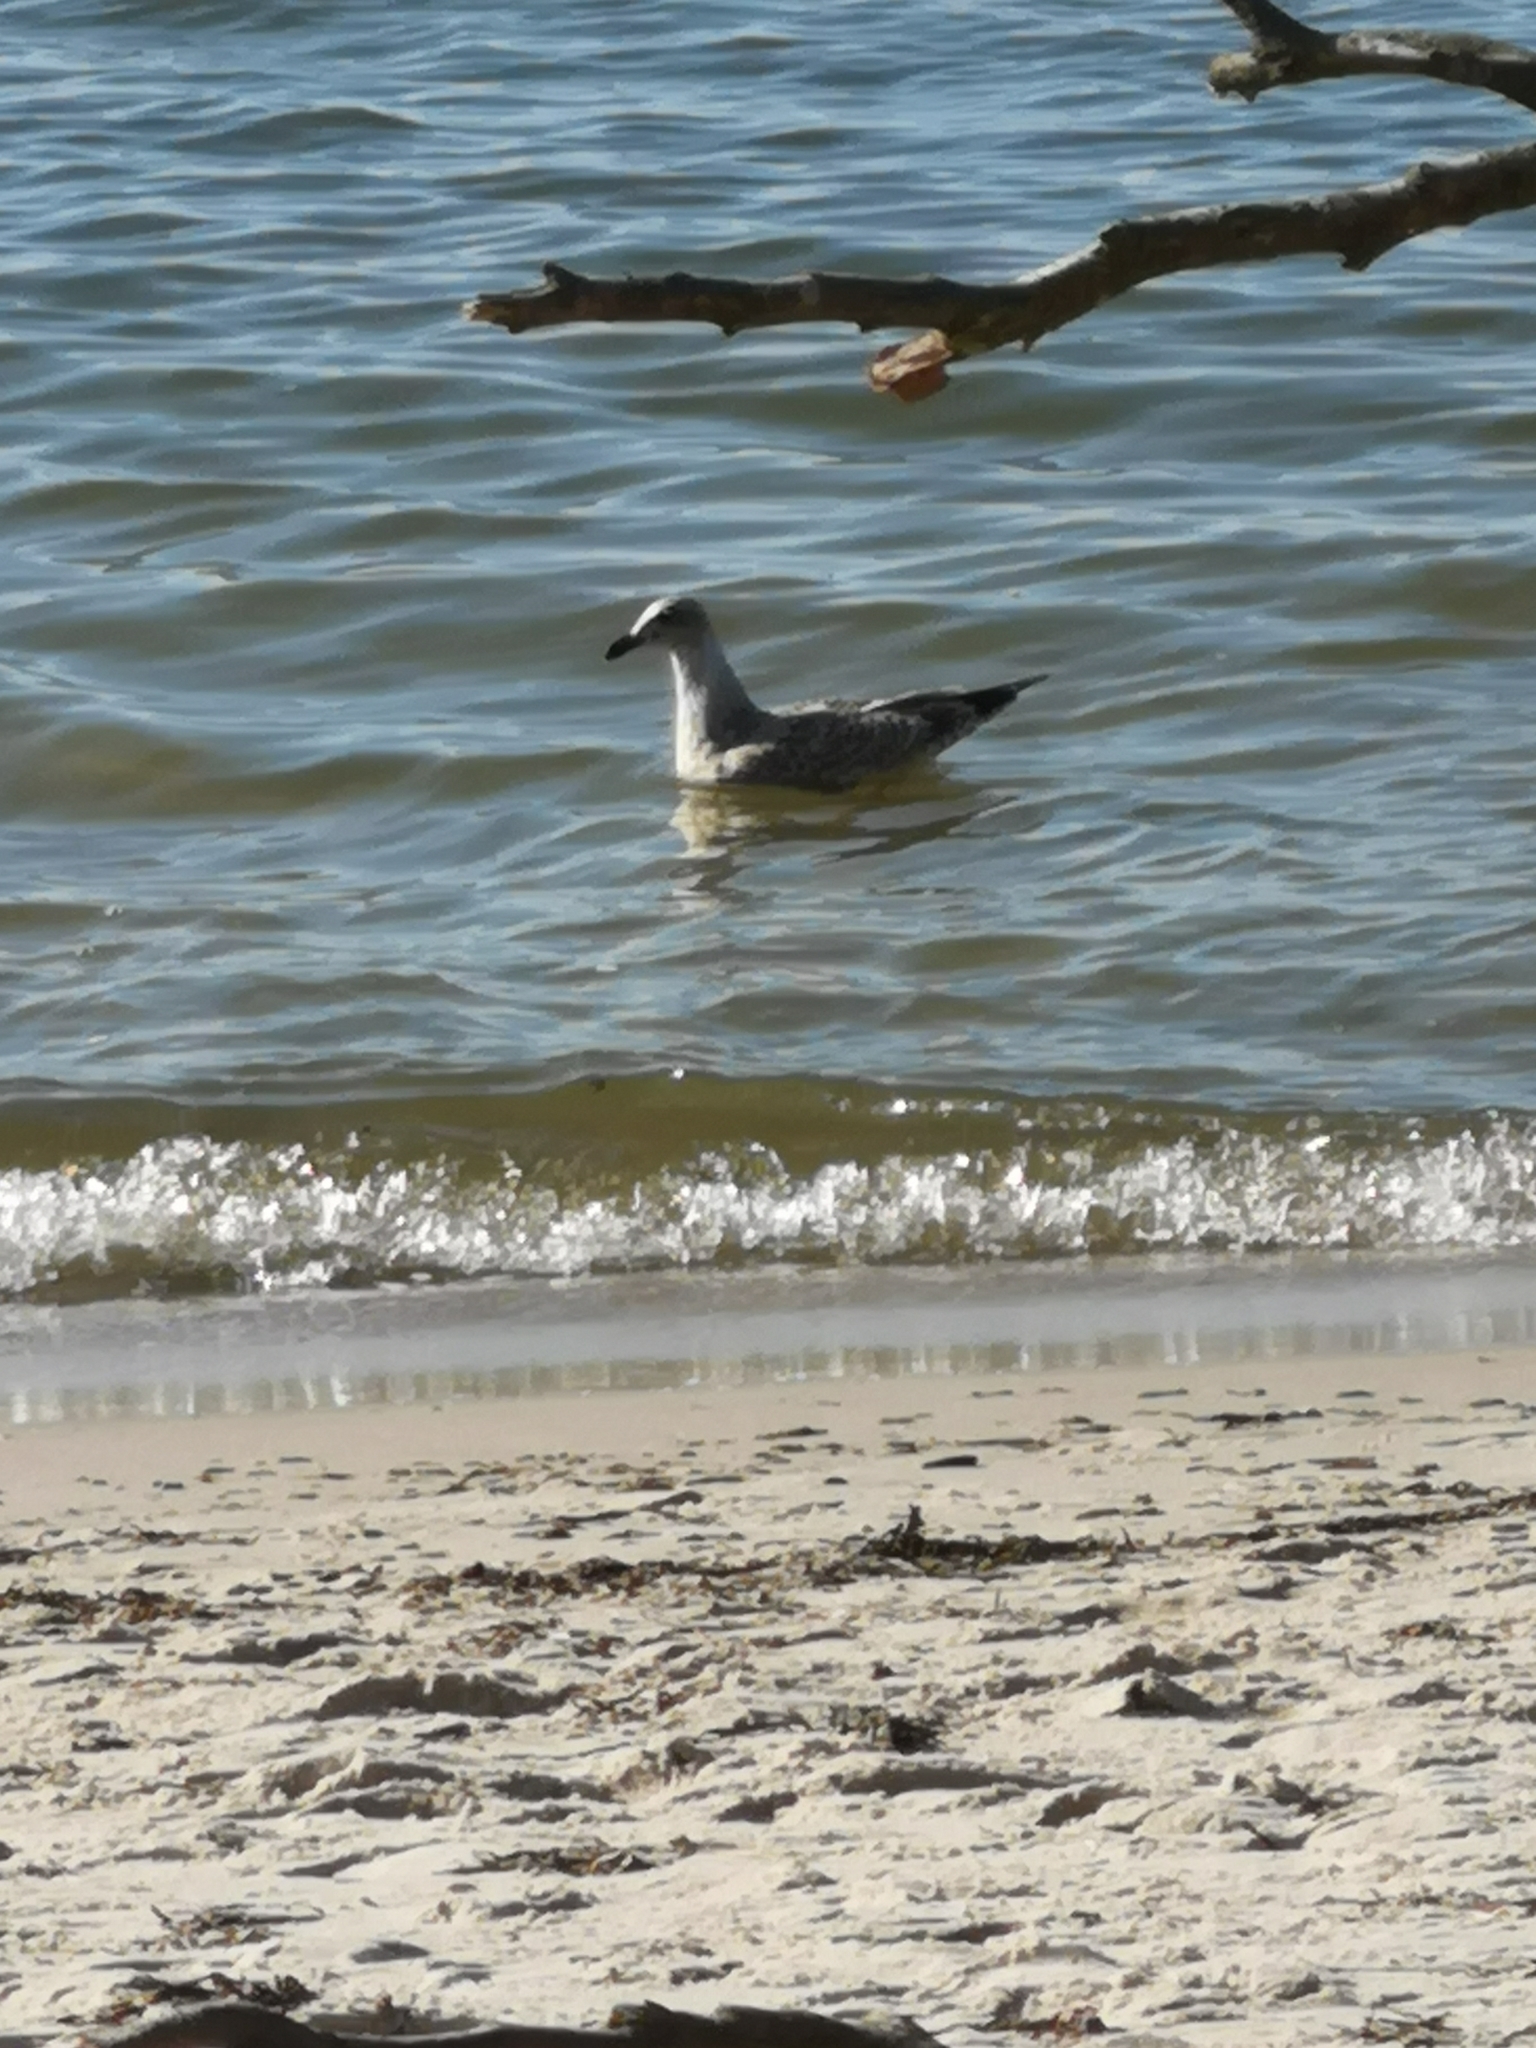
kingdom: Animalia
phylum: Chordata
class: Aves
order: Charadriiformes
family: Laridae
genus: Larus
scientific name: Larus argentatus
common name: Herring gull
